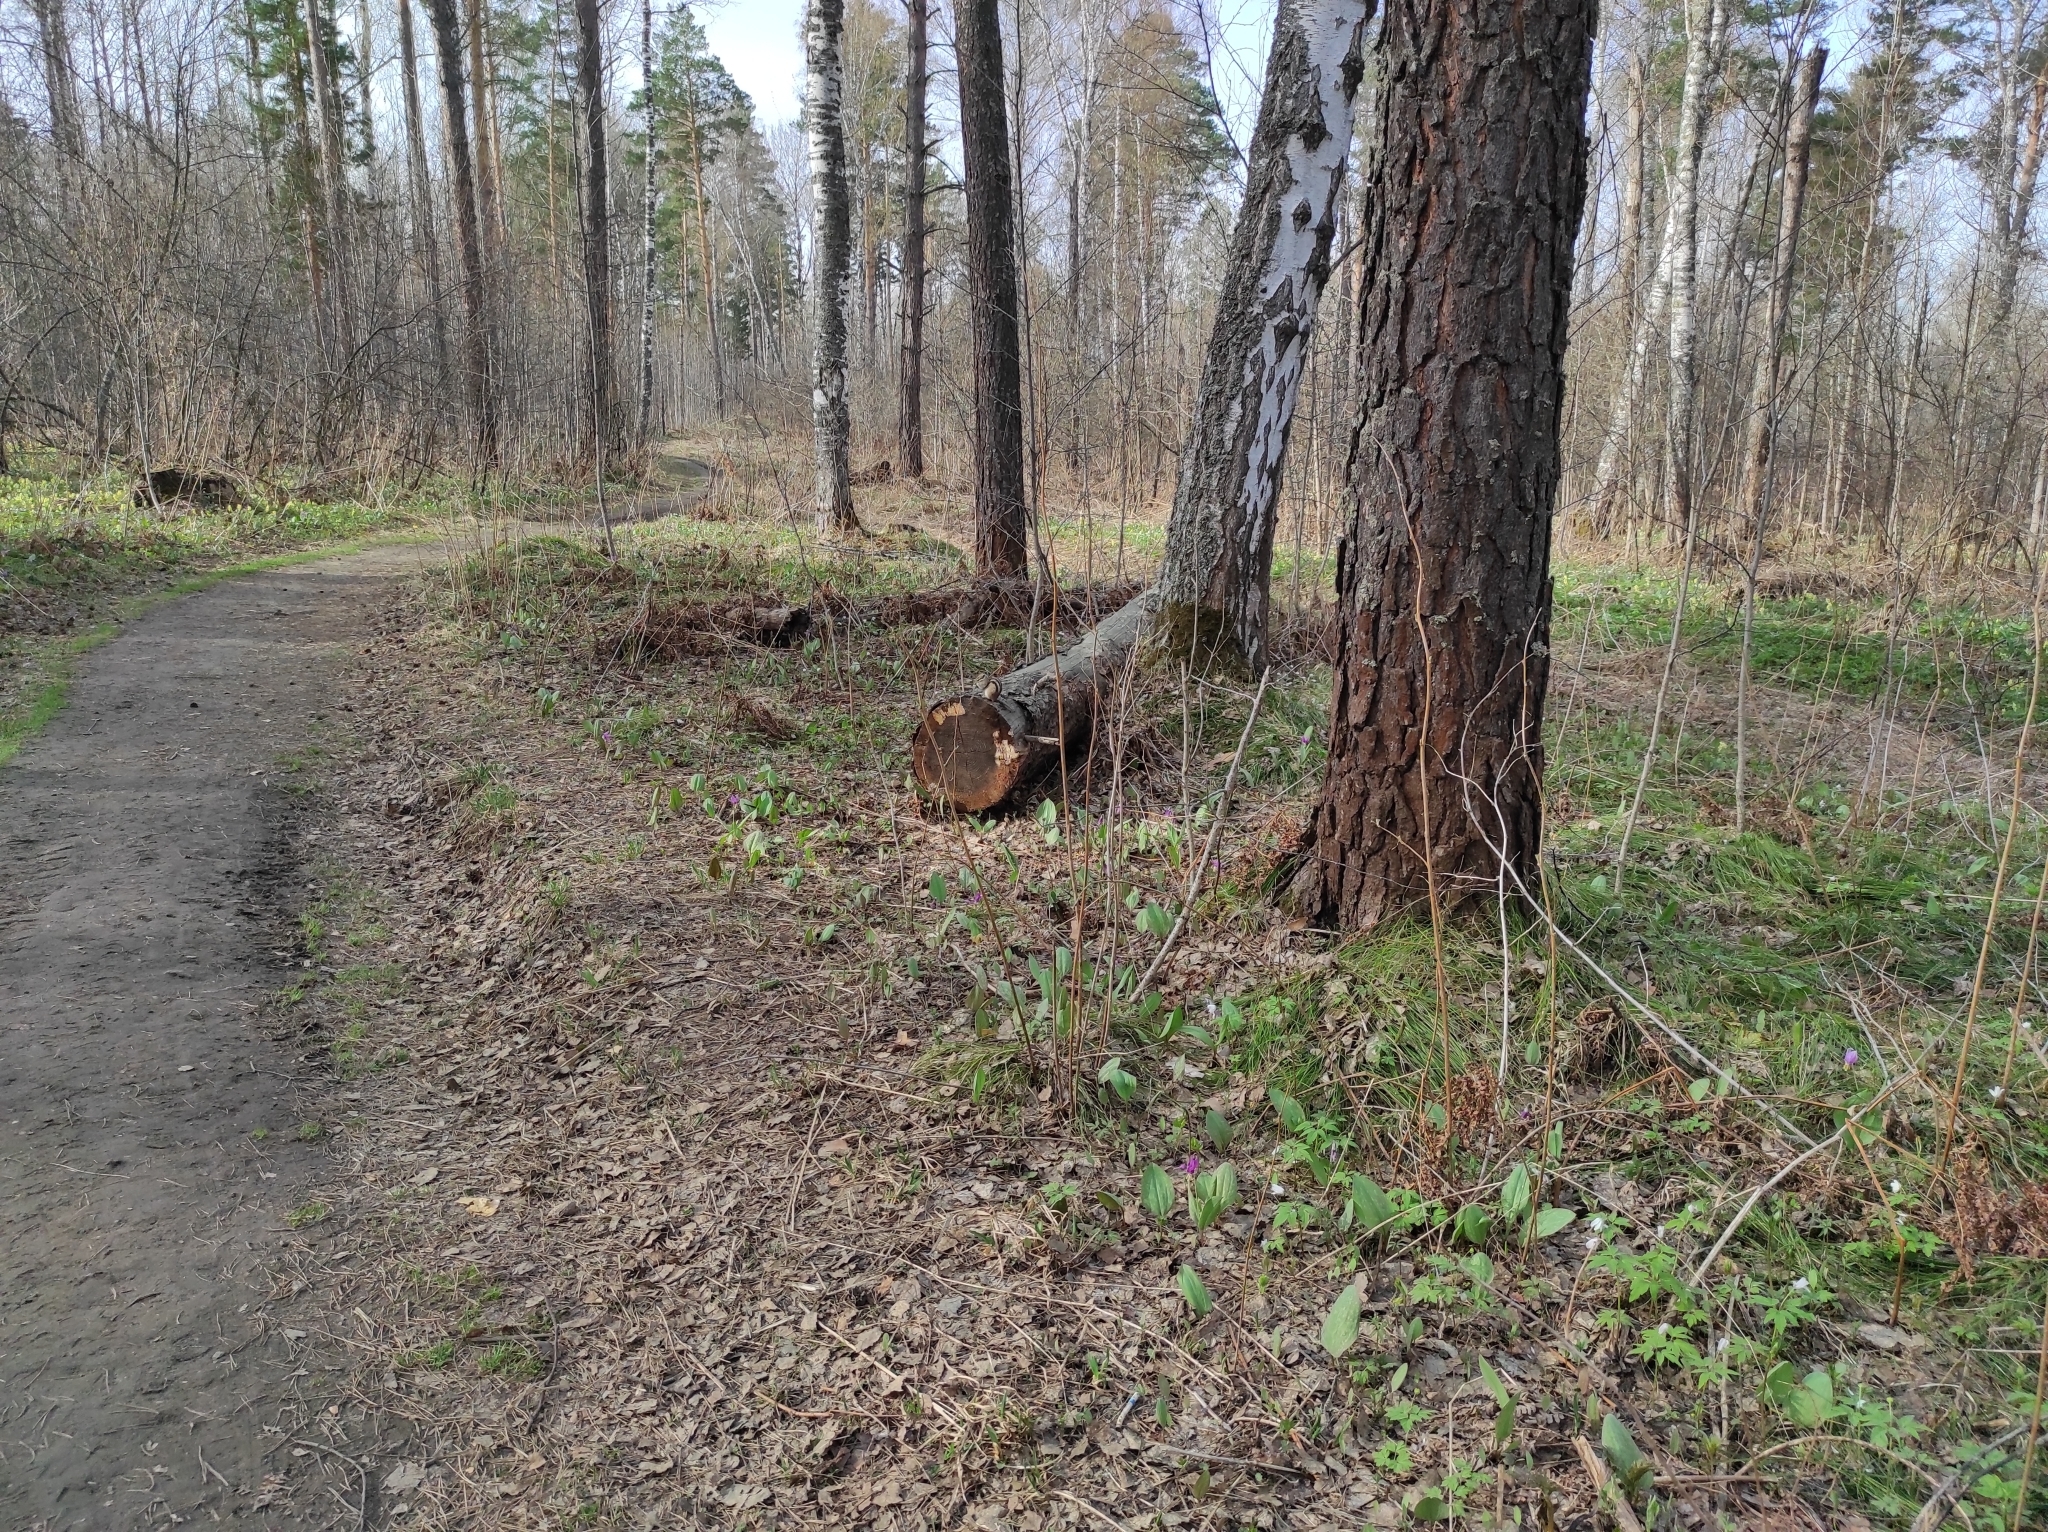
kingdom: Plantae
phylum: Tracheophyta
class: Pinopsida
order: Pinales
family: Pinaceae
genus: Pinus
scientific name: Pinus sylvestris
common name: Scots pine
